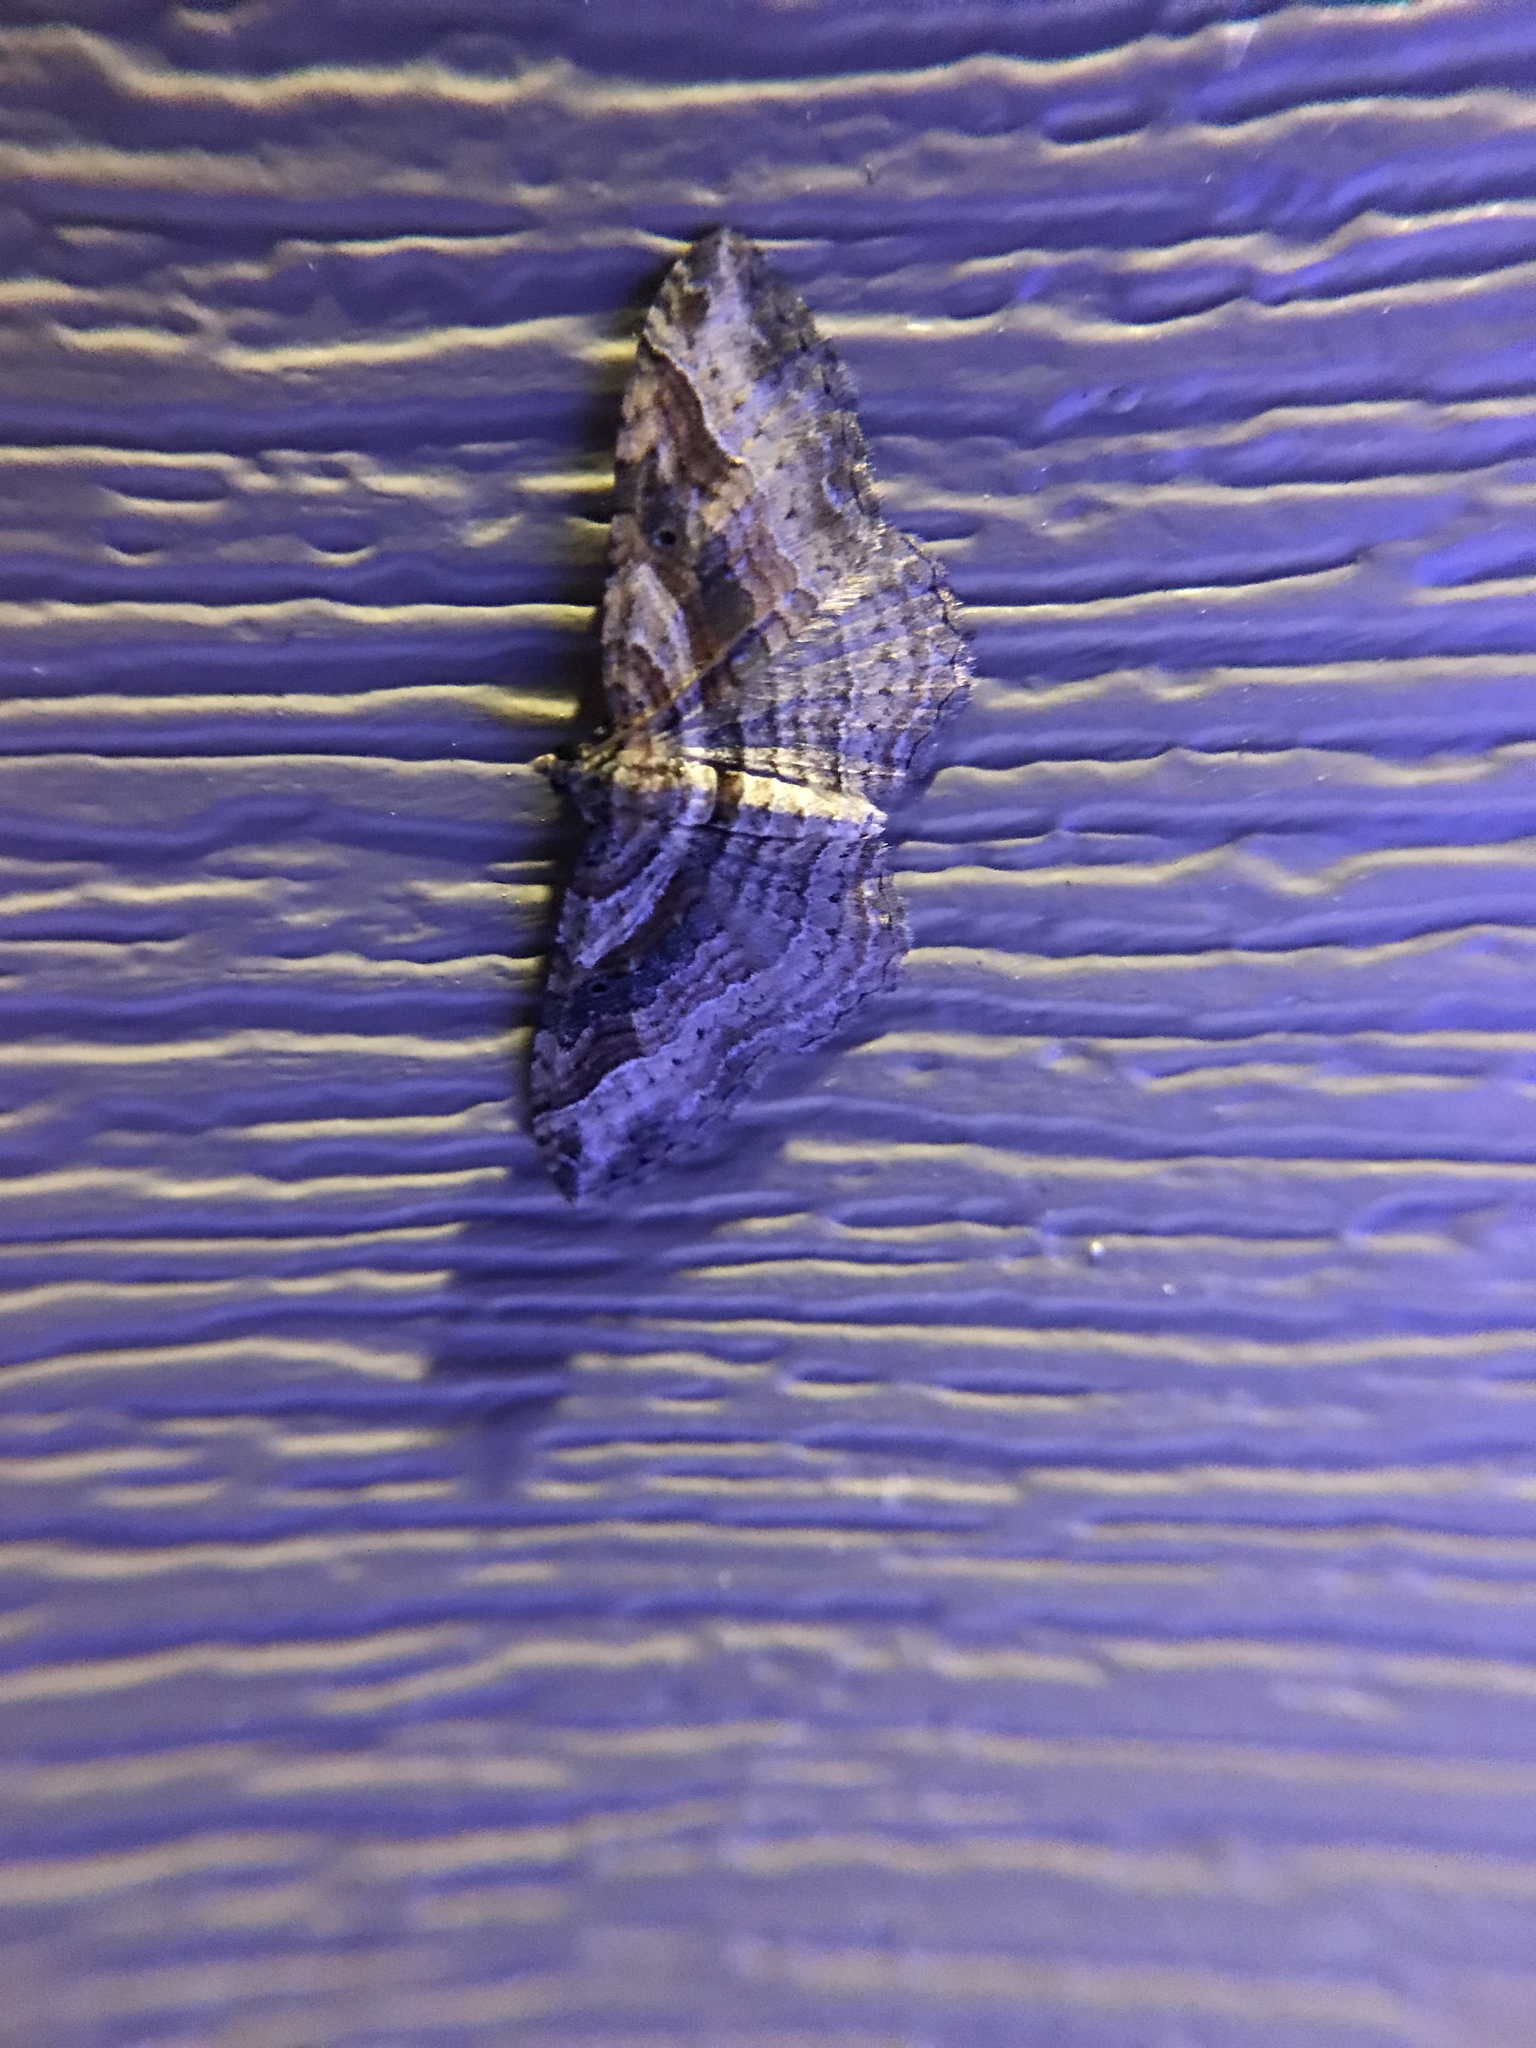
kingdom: Animalia
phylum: Arthropoda
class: Insecta
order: Lepidoptera
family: Geometridae
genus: Costaconvexa
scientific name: Costaconvexa centrostrigaria
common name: Bent-line carpet
